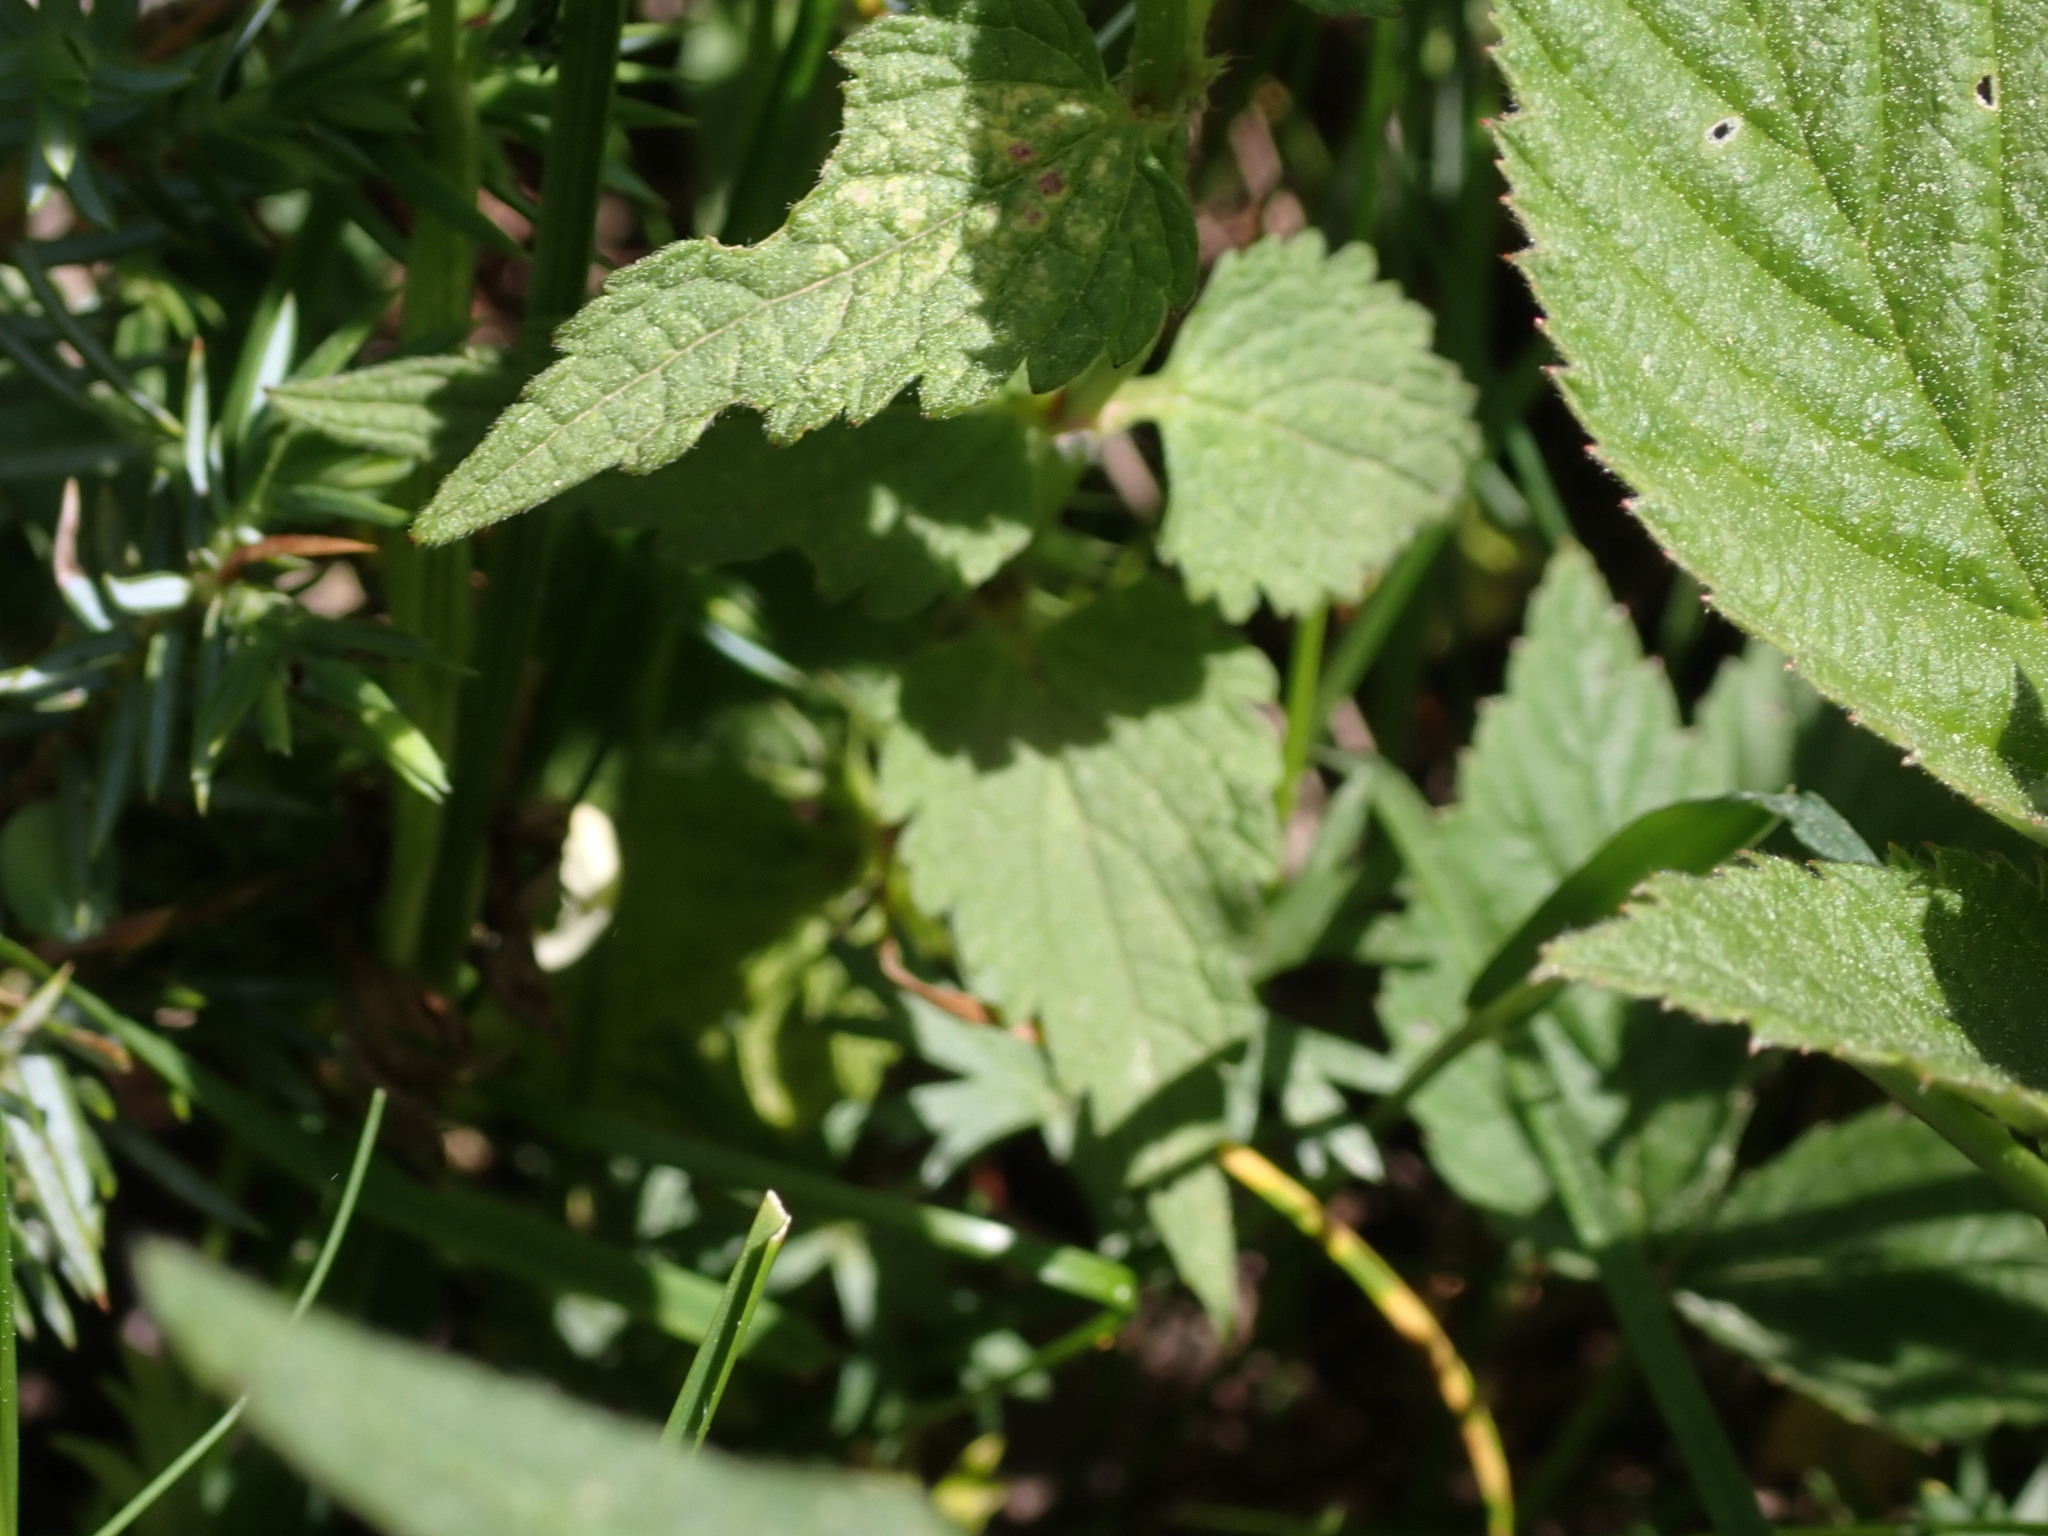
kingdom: Plantae
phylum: Tracheophyta
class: Magnoliopsida
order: Lamiales
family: Lamiaceae
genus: Lamium
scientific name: Lamium album
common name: White dead-nettle
